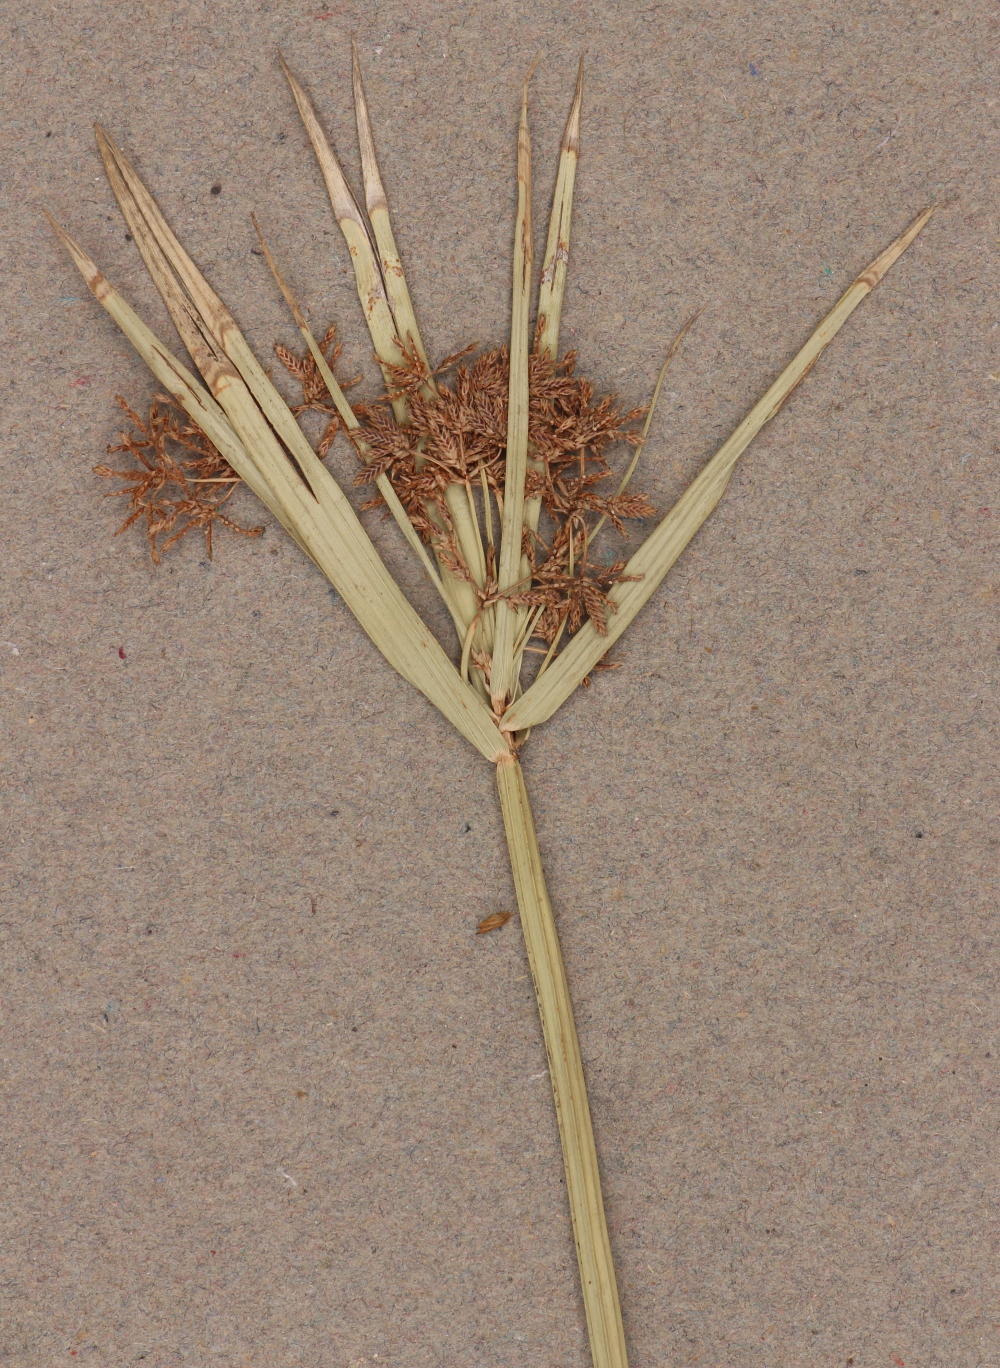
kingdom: Plantae
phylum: Tracheophyta
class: Liliopsida
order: Poales
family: Cyperaceae
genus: Cyperus
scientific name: Cyperus sexangularis
